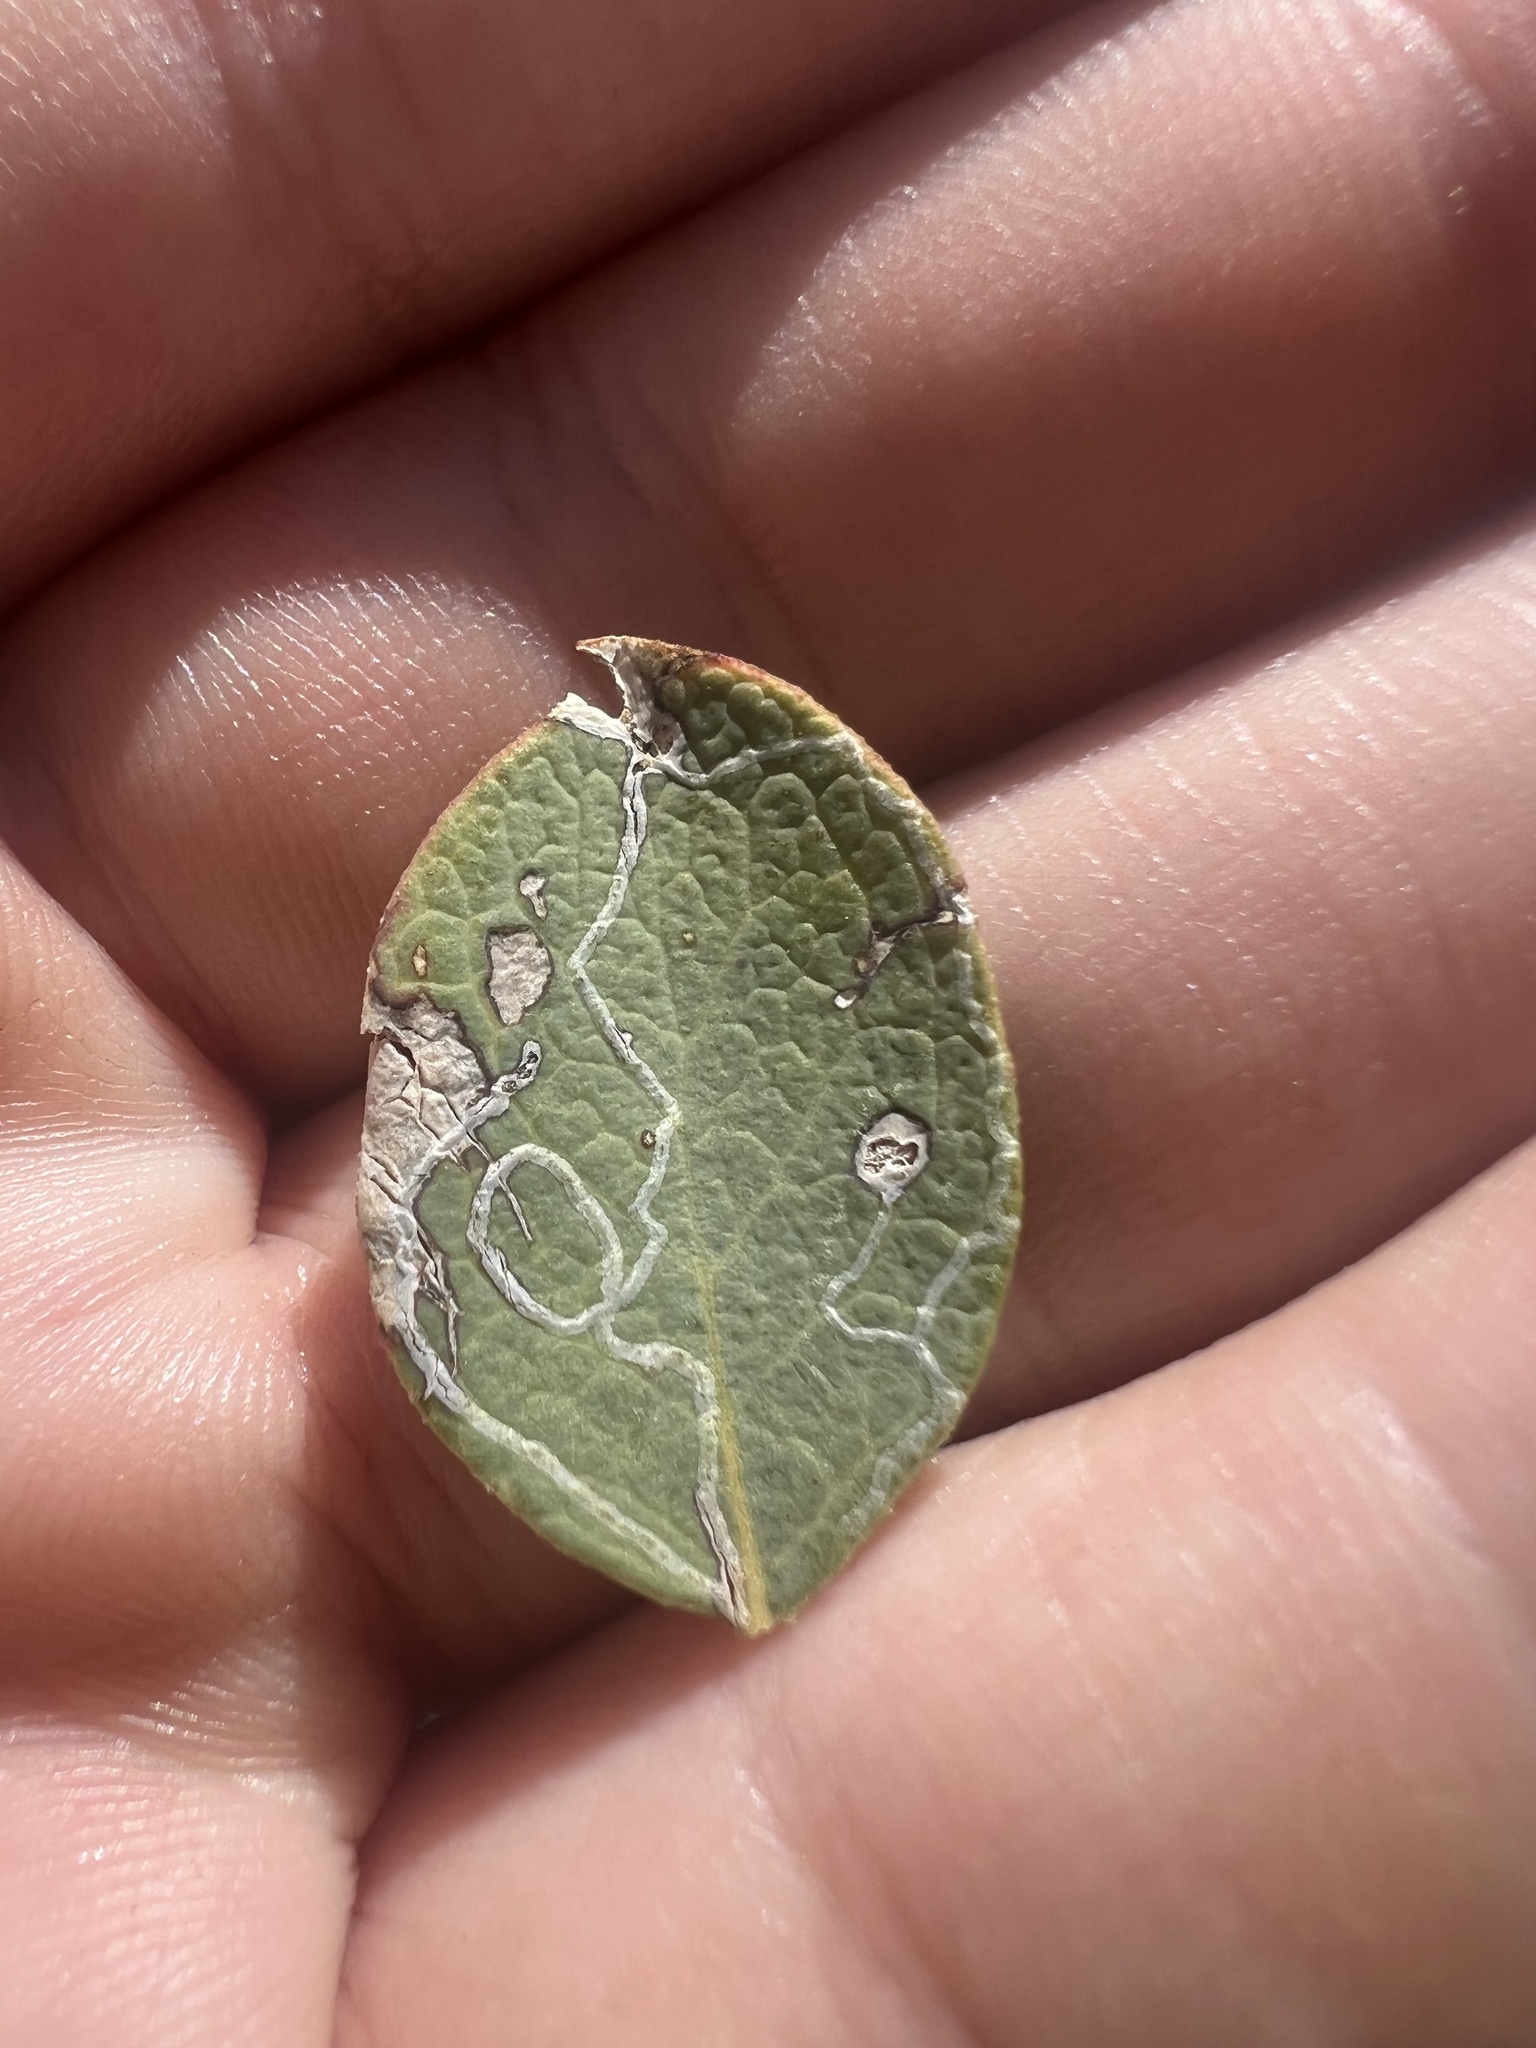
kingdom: Plantae
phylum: Tracheophyta
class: Magnoliopsida
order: Garryales
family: Garryaceae
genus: Garrya
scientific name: Garrya wrightii
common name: Wright's silktassel
